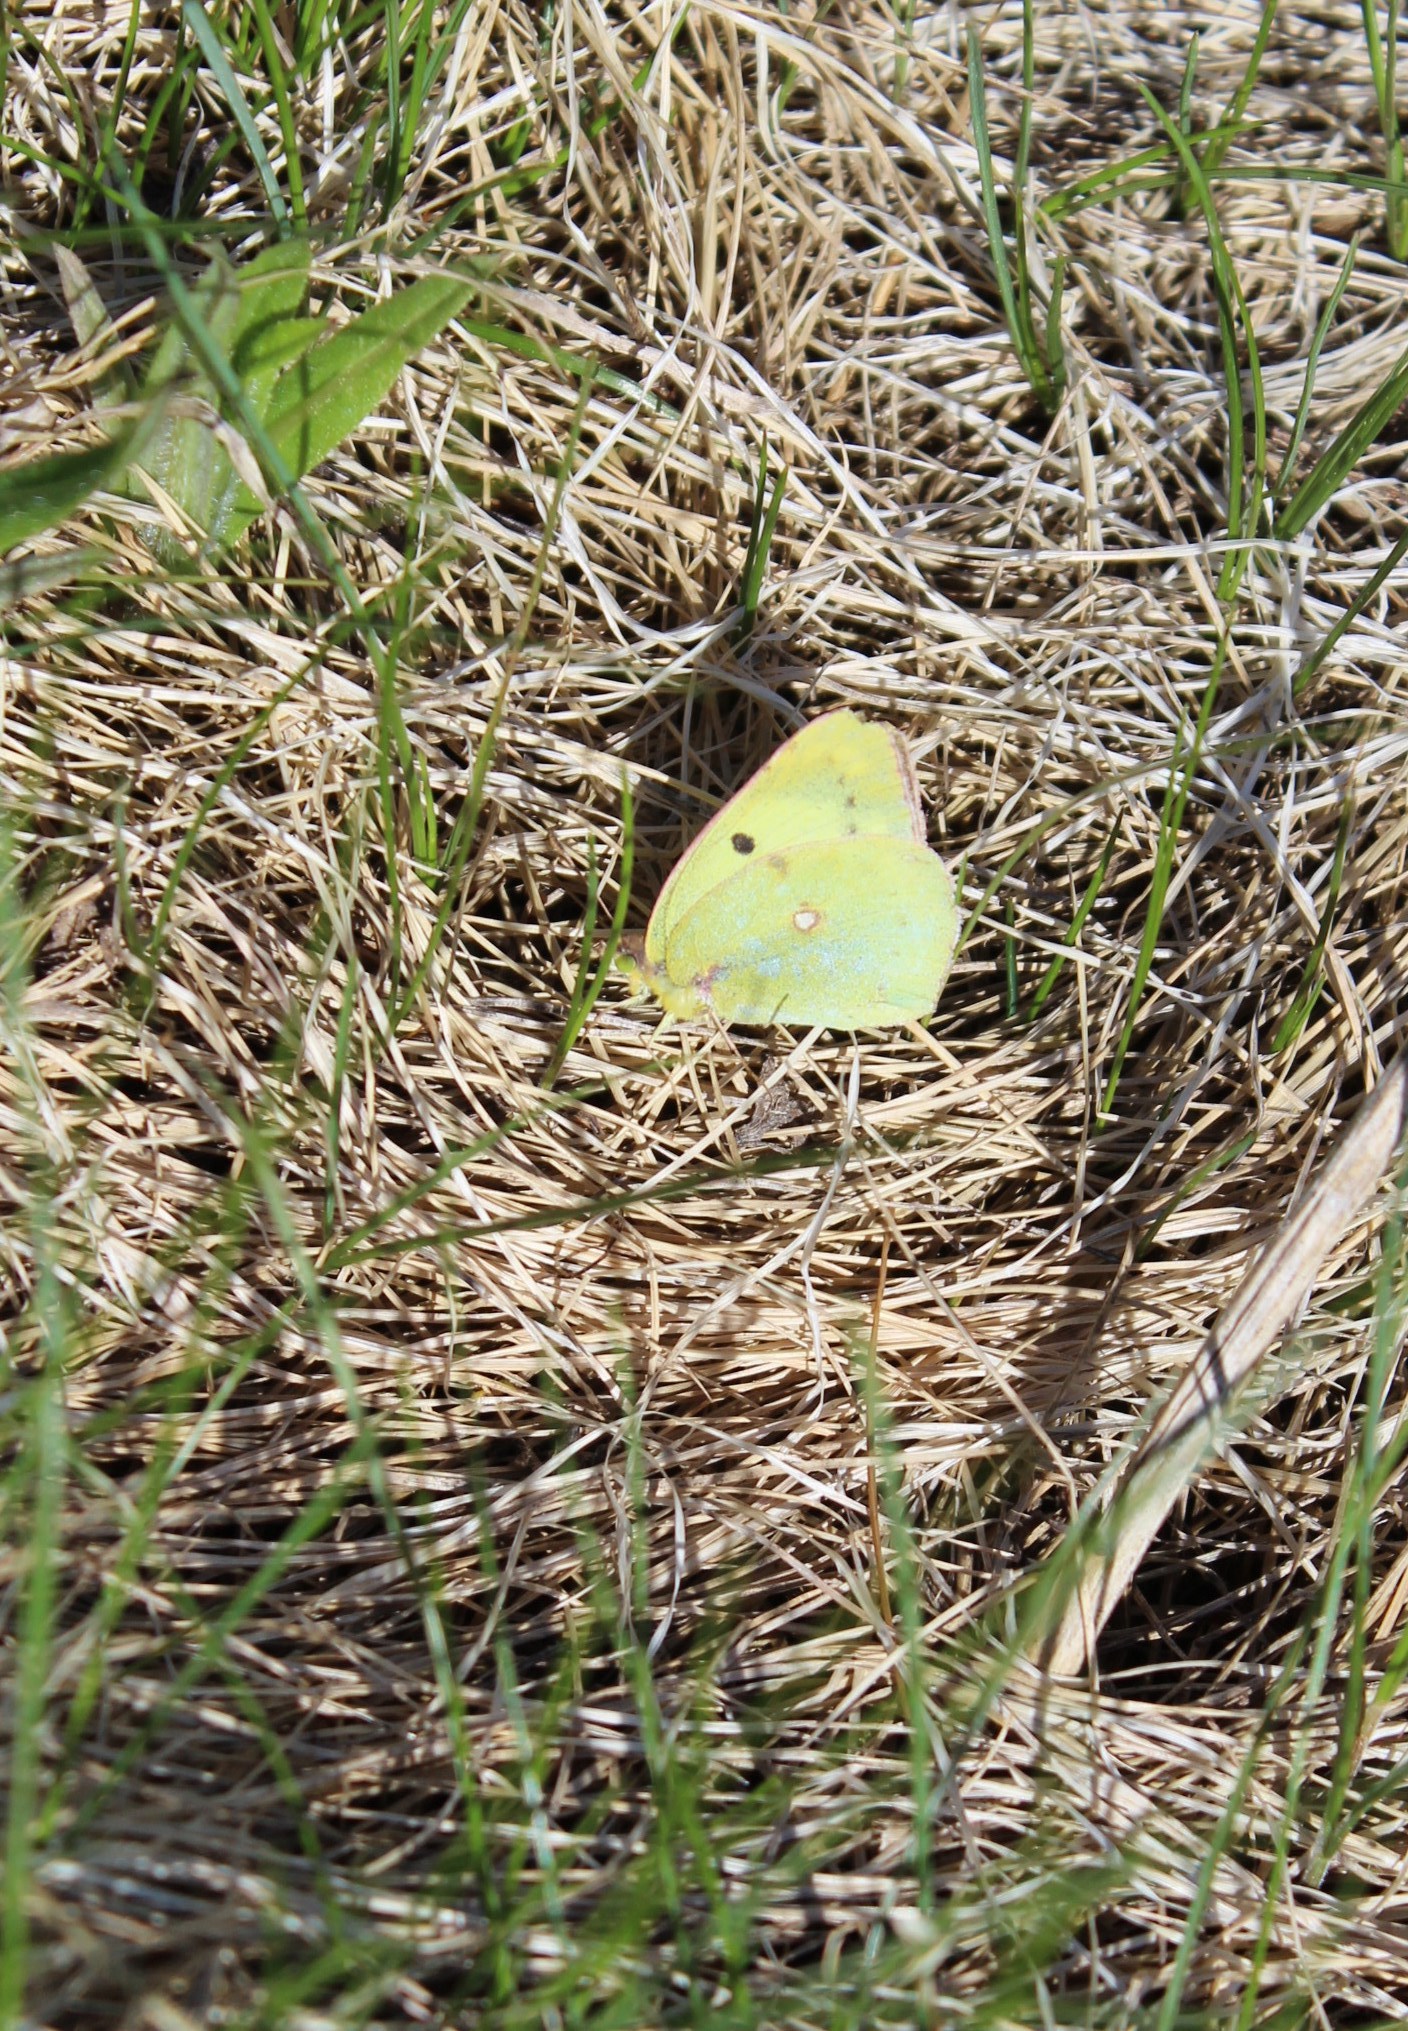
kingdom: Animalia
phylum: Arthropoda
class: Insecta
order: Lepidoptera
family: Pieridae
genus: Colias
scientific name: Colias hyale
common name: Pale clouded yellow
